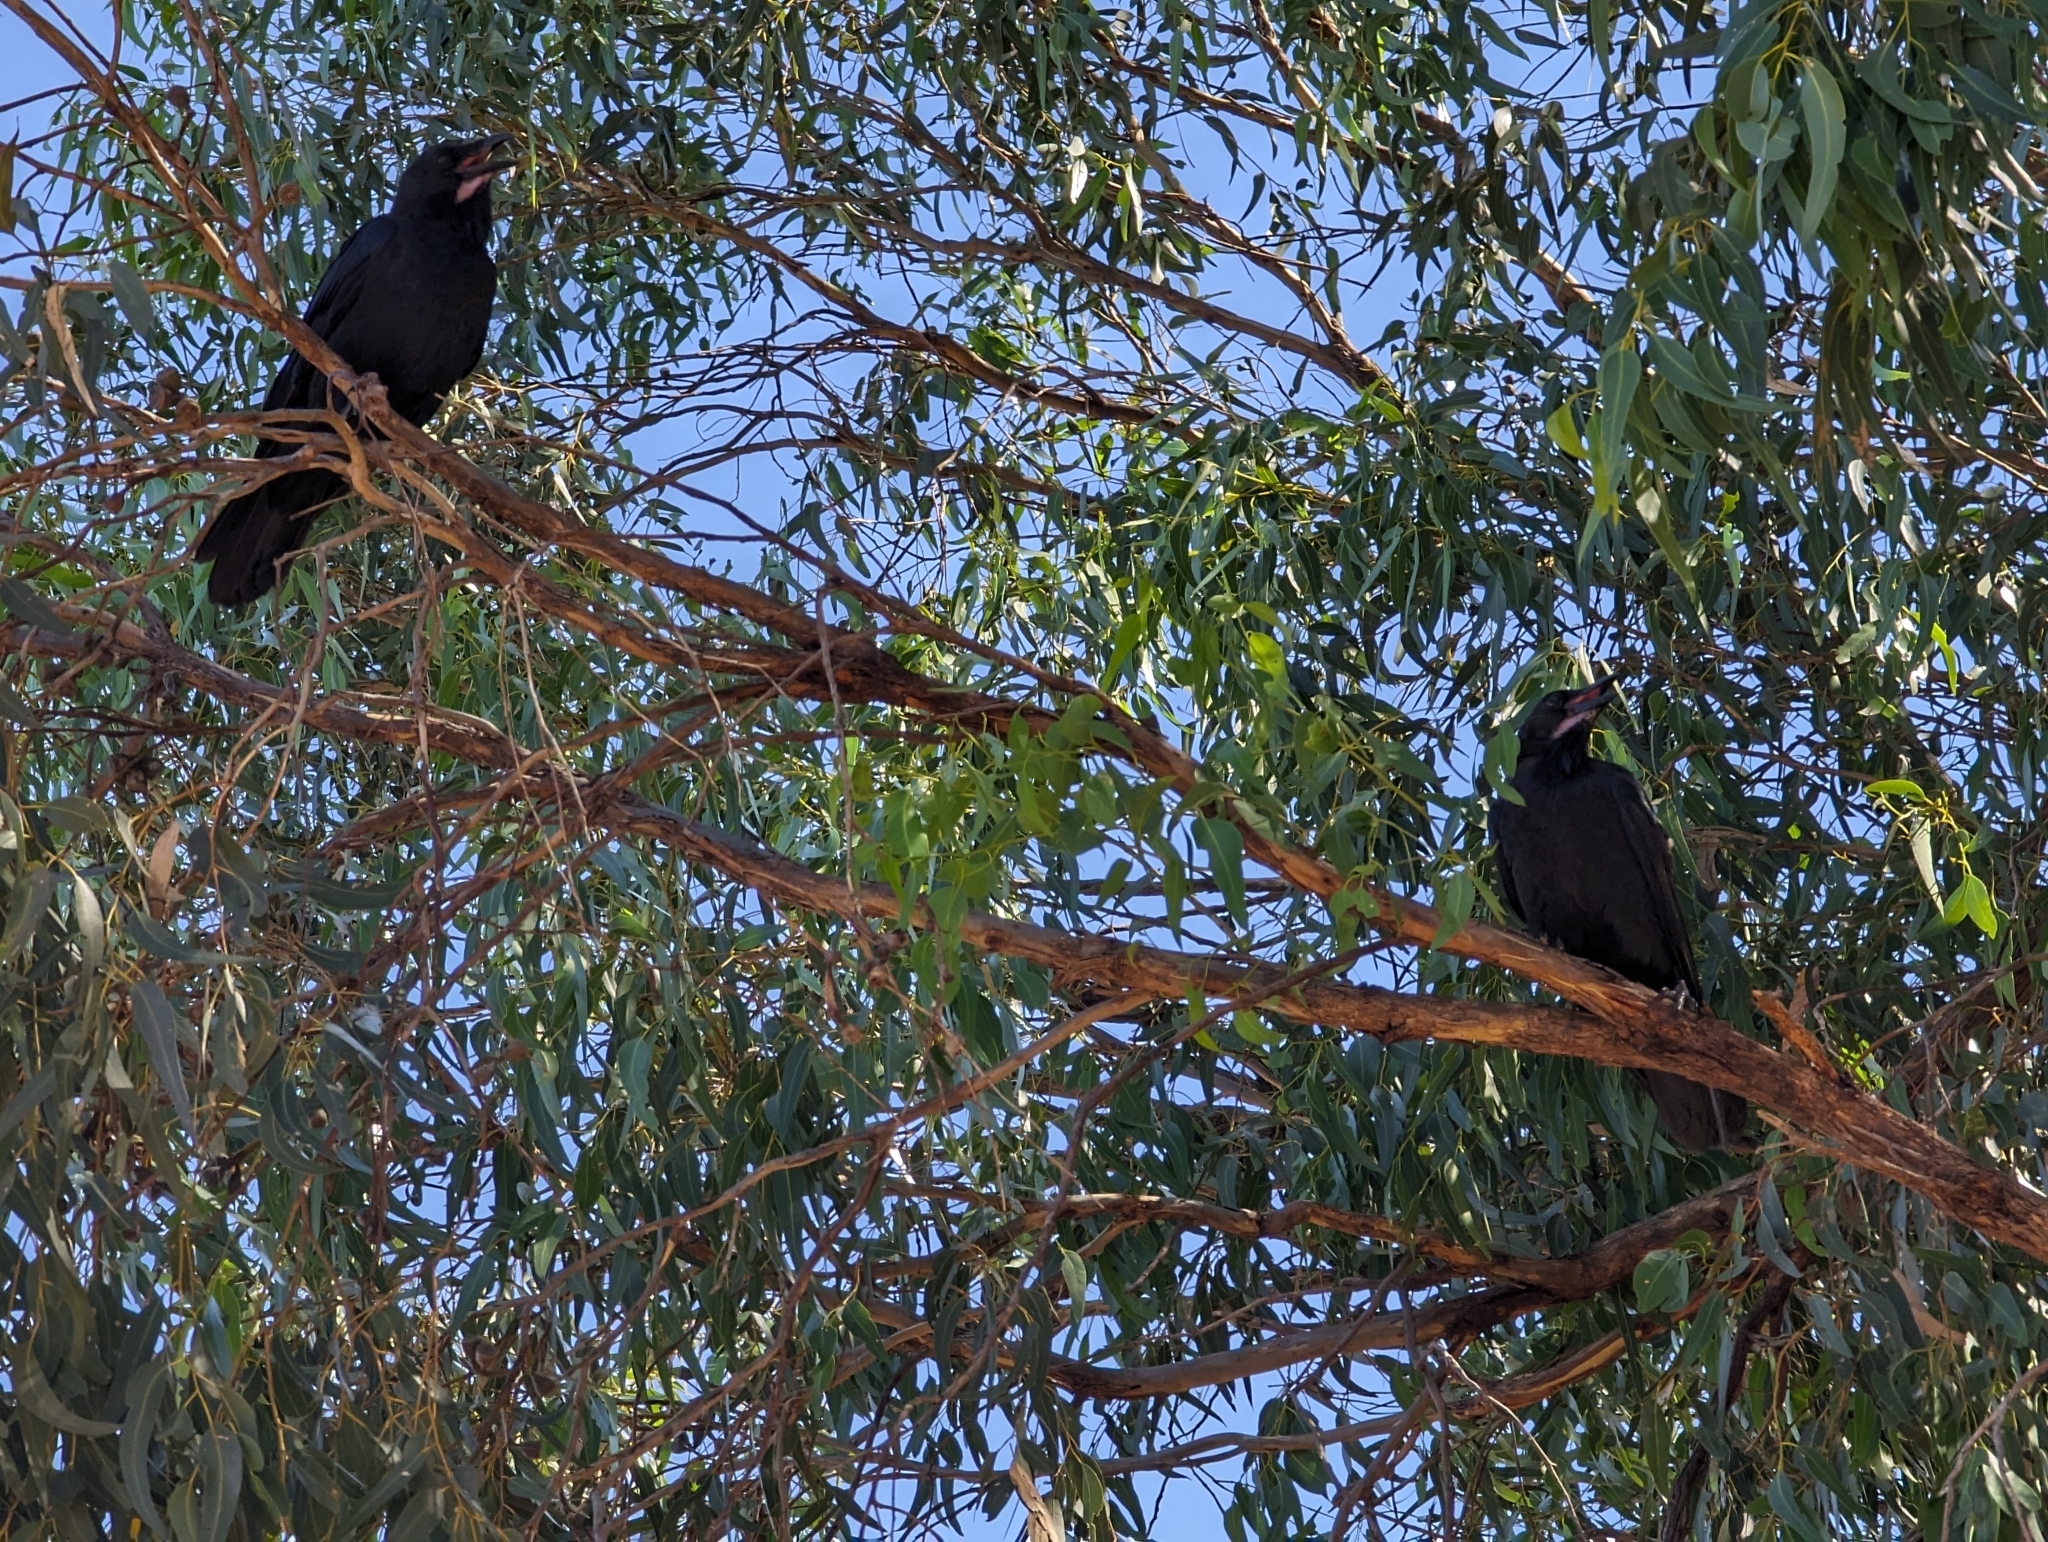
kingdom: Animalia
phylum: Chordata
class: Aves
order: Passeriformes
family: Corvidae
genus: Corvus
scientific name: Corvus coronoides
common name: Australian raven
